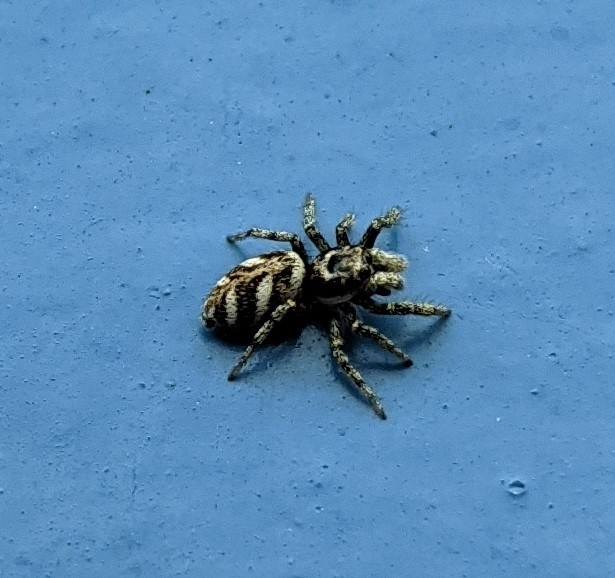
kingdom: Animalia
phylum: Arthropoda
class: Arachnida
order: Araneae
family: Salticidae
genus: Salticus
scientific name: Salticus scenicus
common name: Zebra jumper
